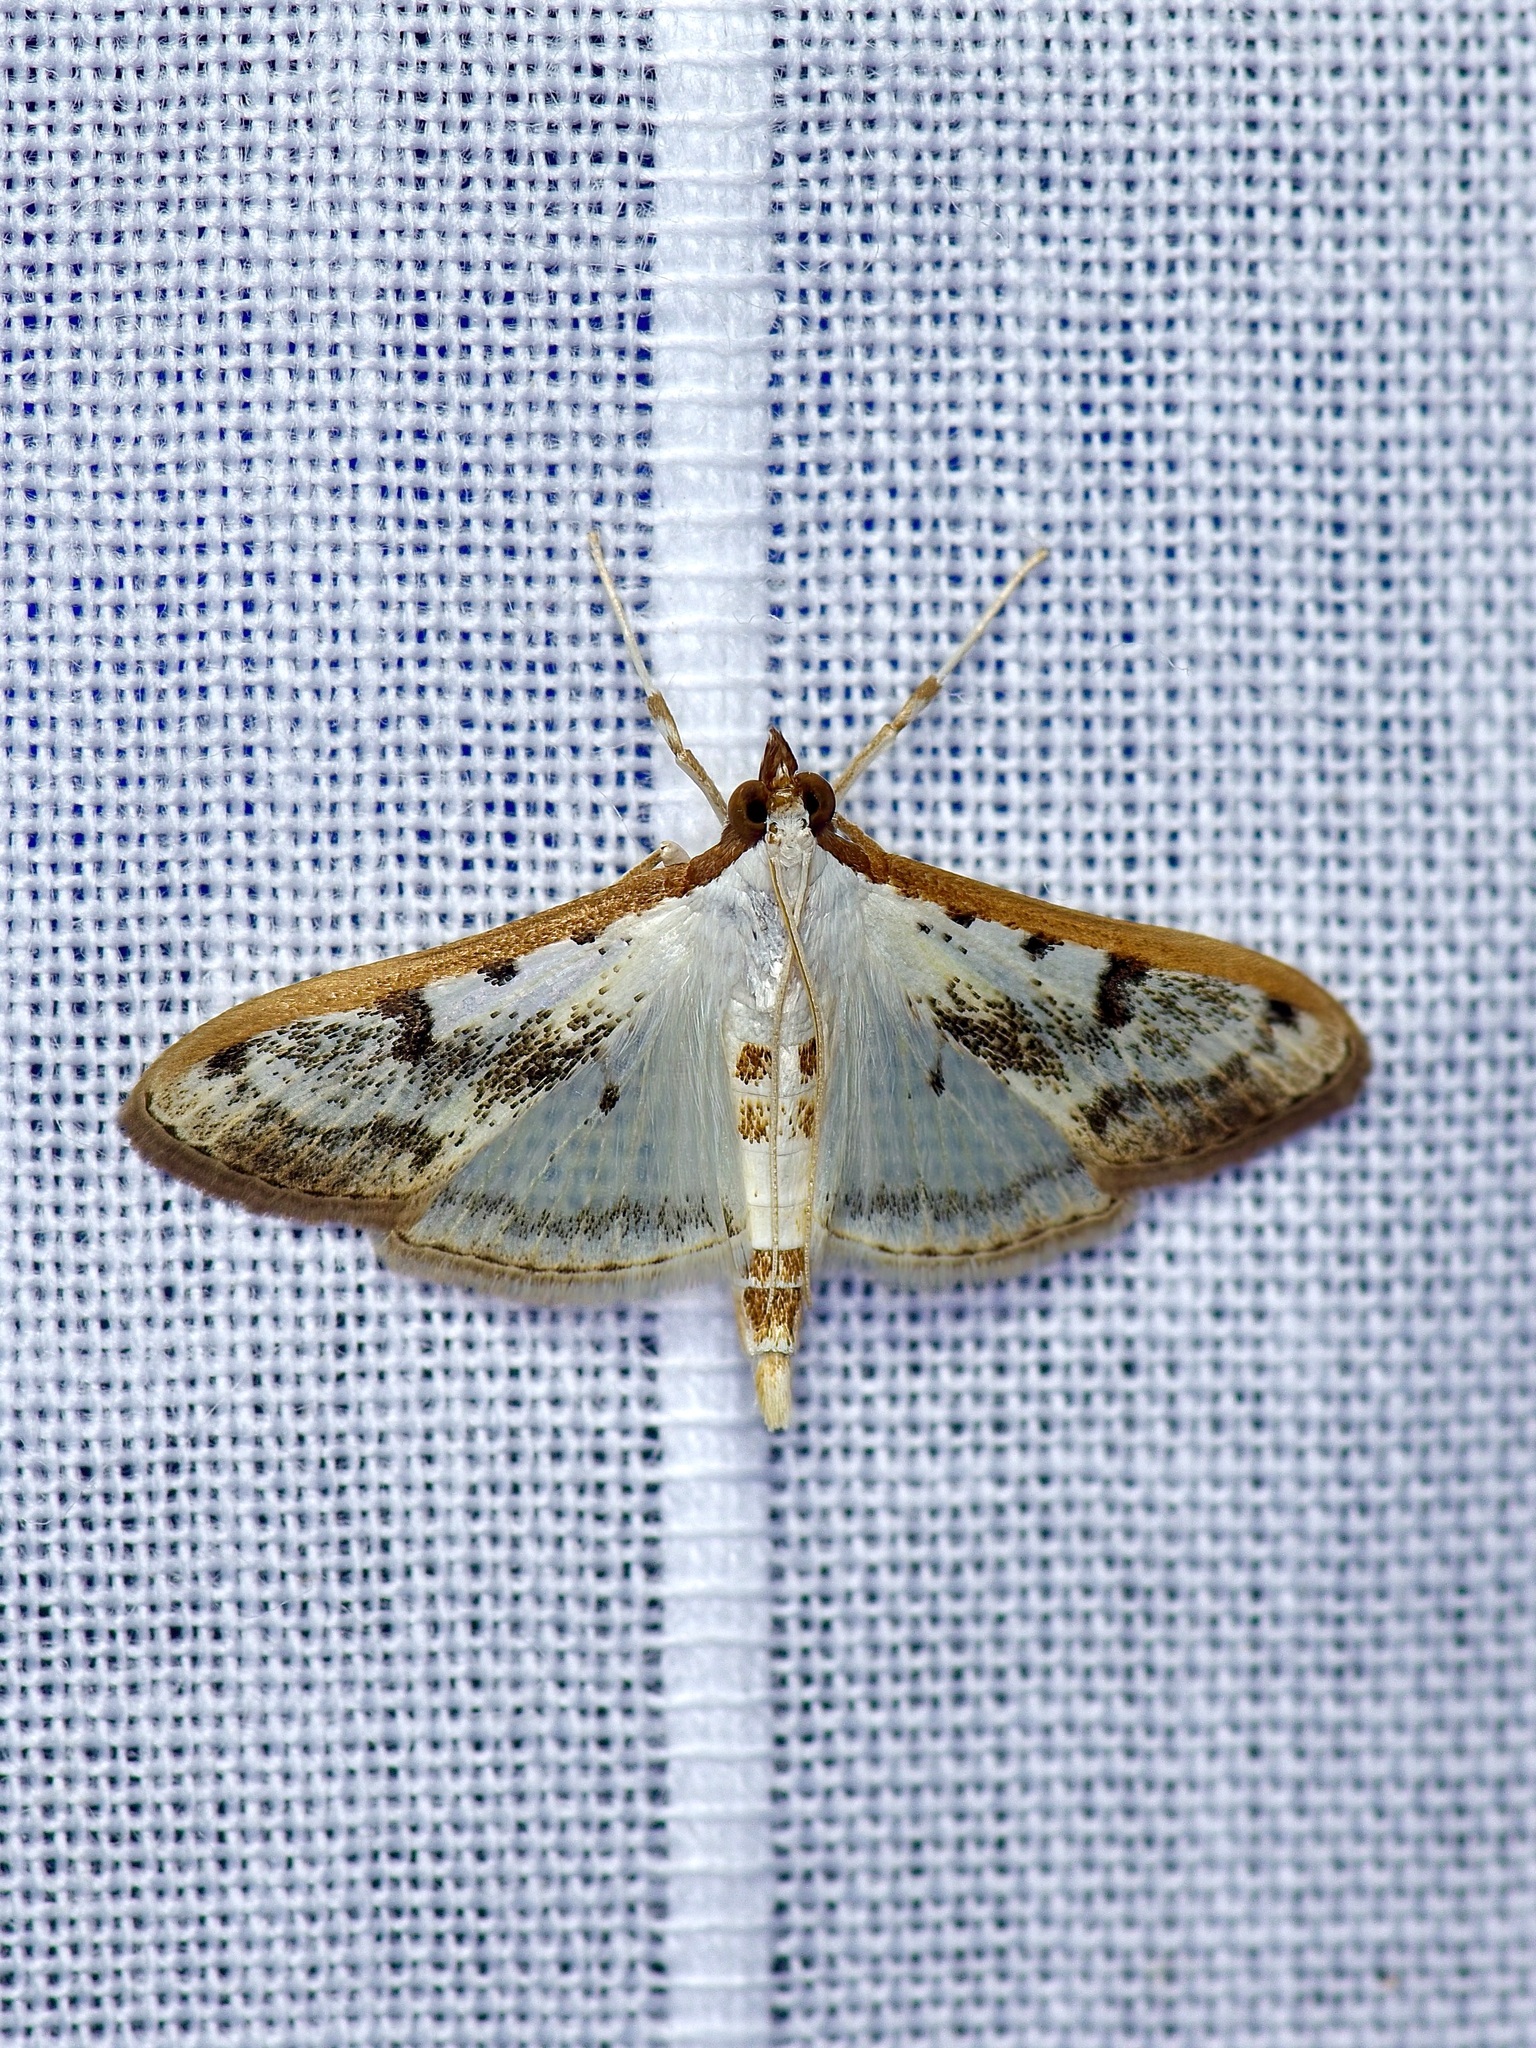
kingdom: Animalia
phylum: Arthropoda
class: Insecta
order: Lepidoptera
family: Crambidae
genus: Palpita
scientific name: Palpita gracilalis
